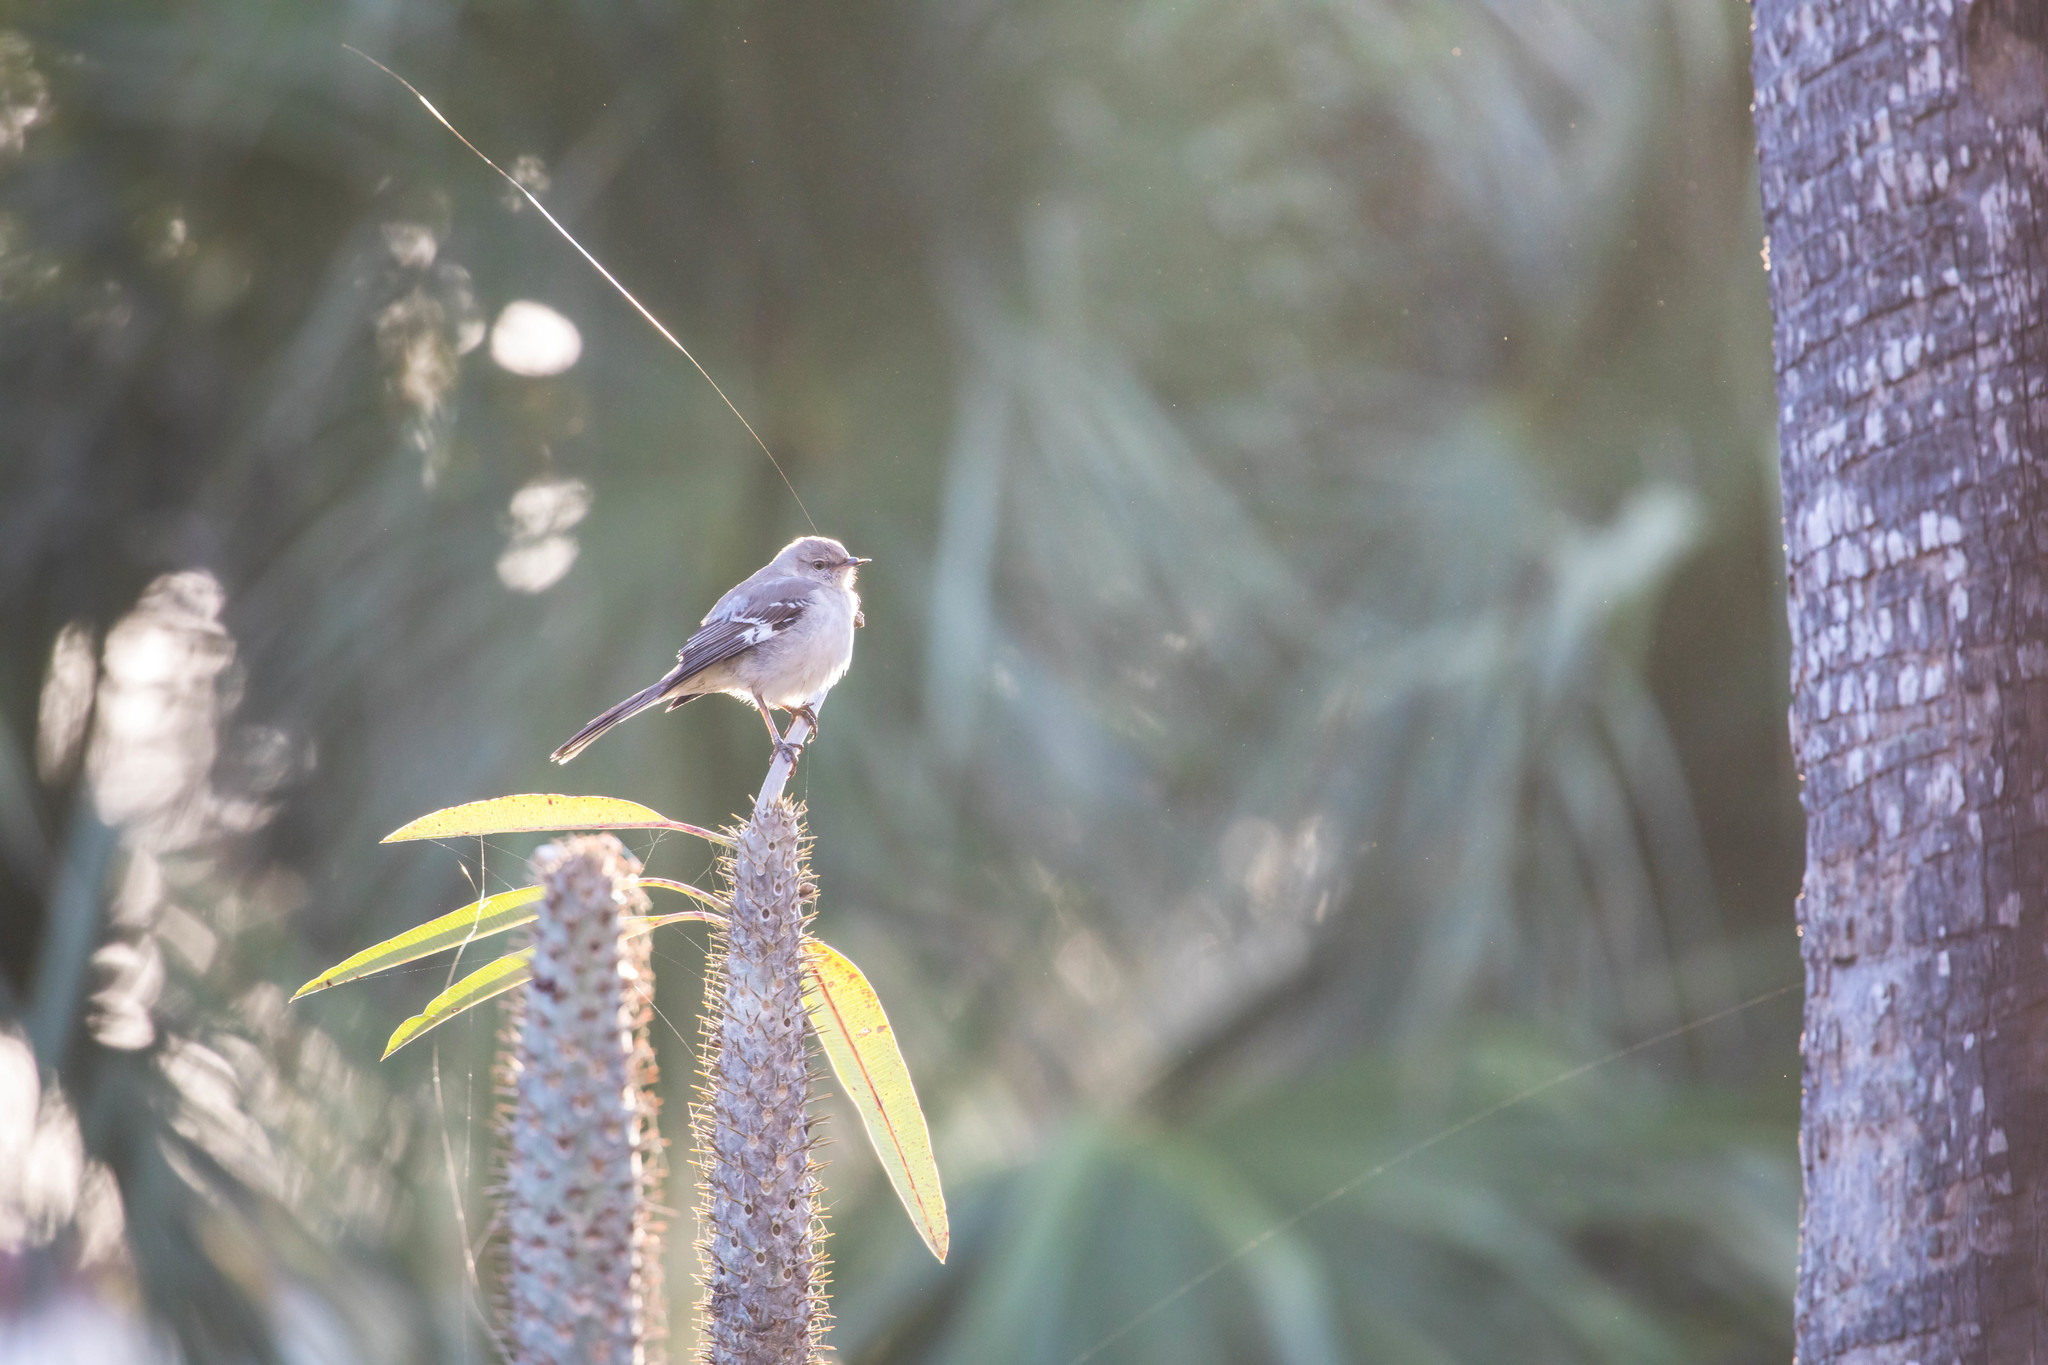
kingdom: Animalia
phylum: Chordata
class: Aves
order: Passeriformes
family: Mimidae
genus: Mimus
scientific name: Mimus polyglottos
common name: Northern mockingbird
